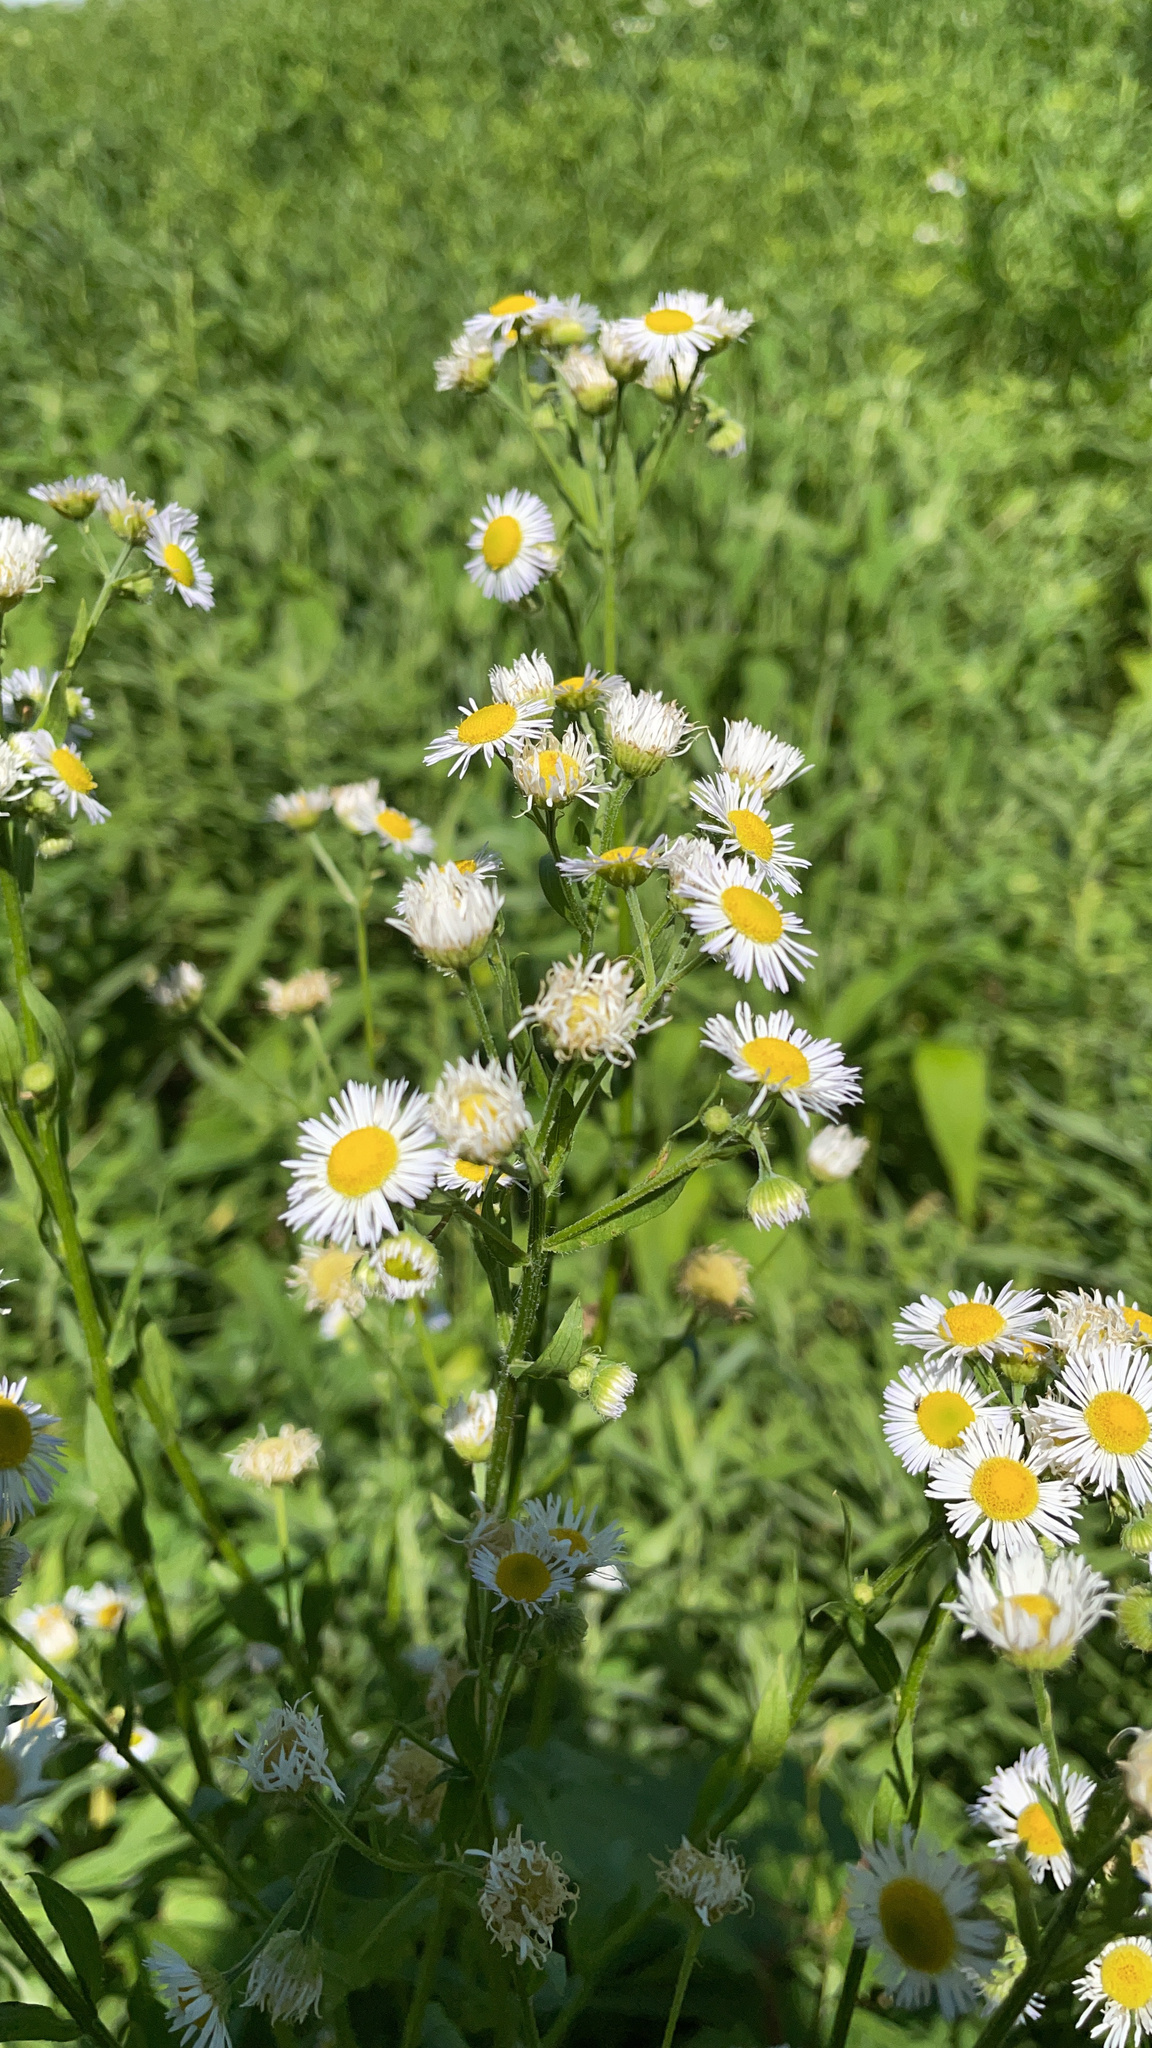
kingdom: Plantae
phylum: Tracheophyta
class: Magnoliopsida
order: Asterales
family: Asteraceae
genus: Erigeron
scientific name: Erigeron annuus
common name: Tall fleabane
